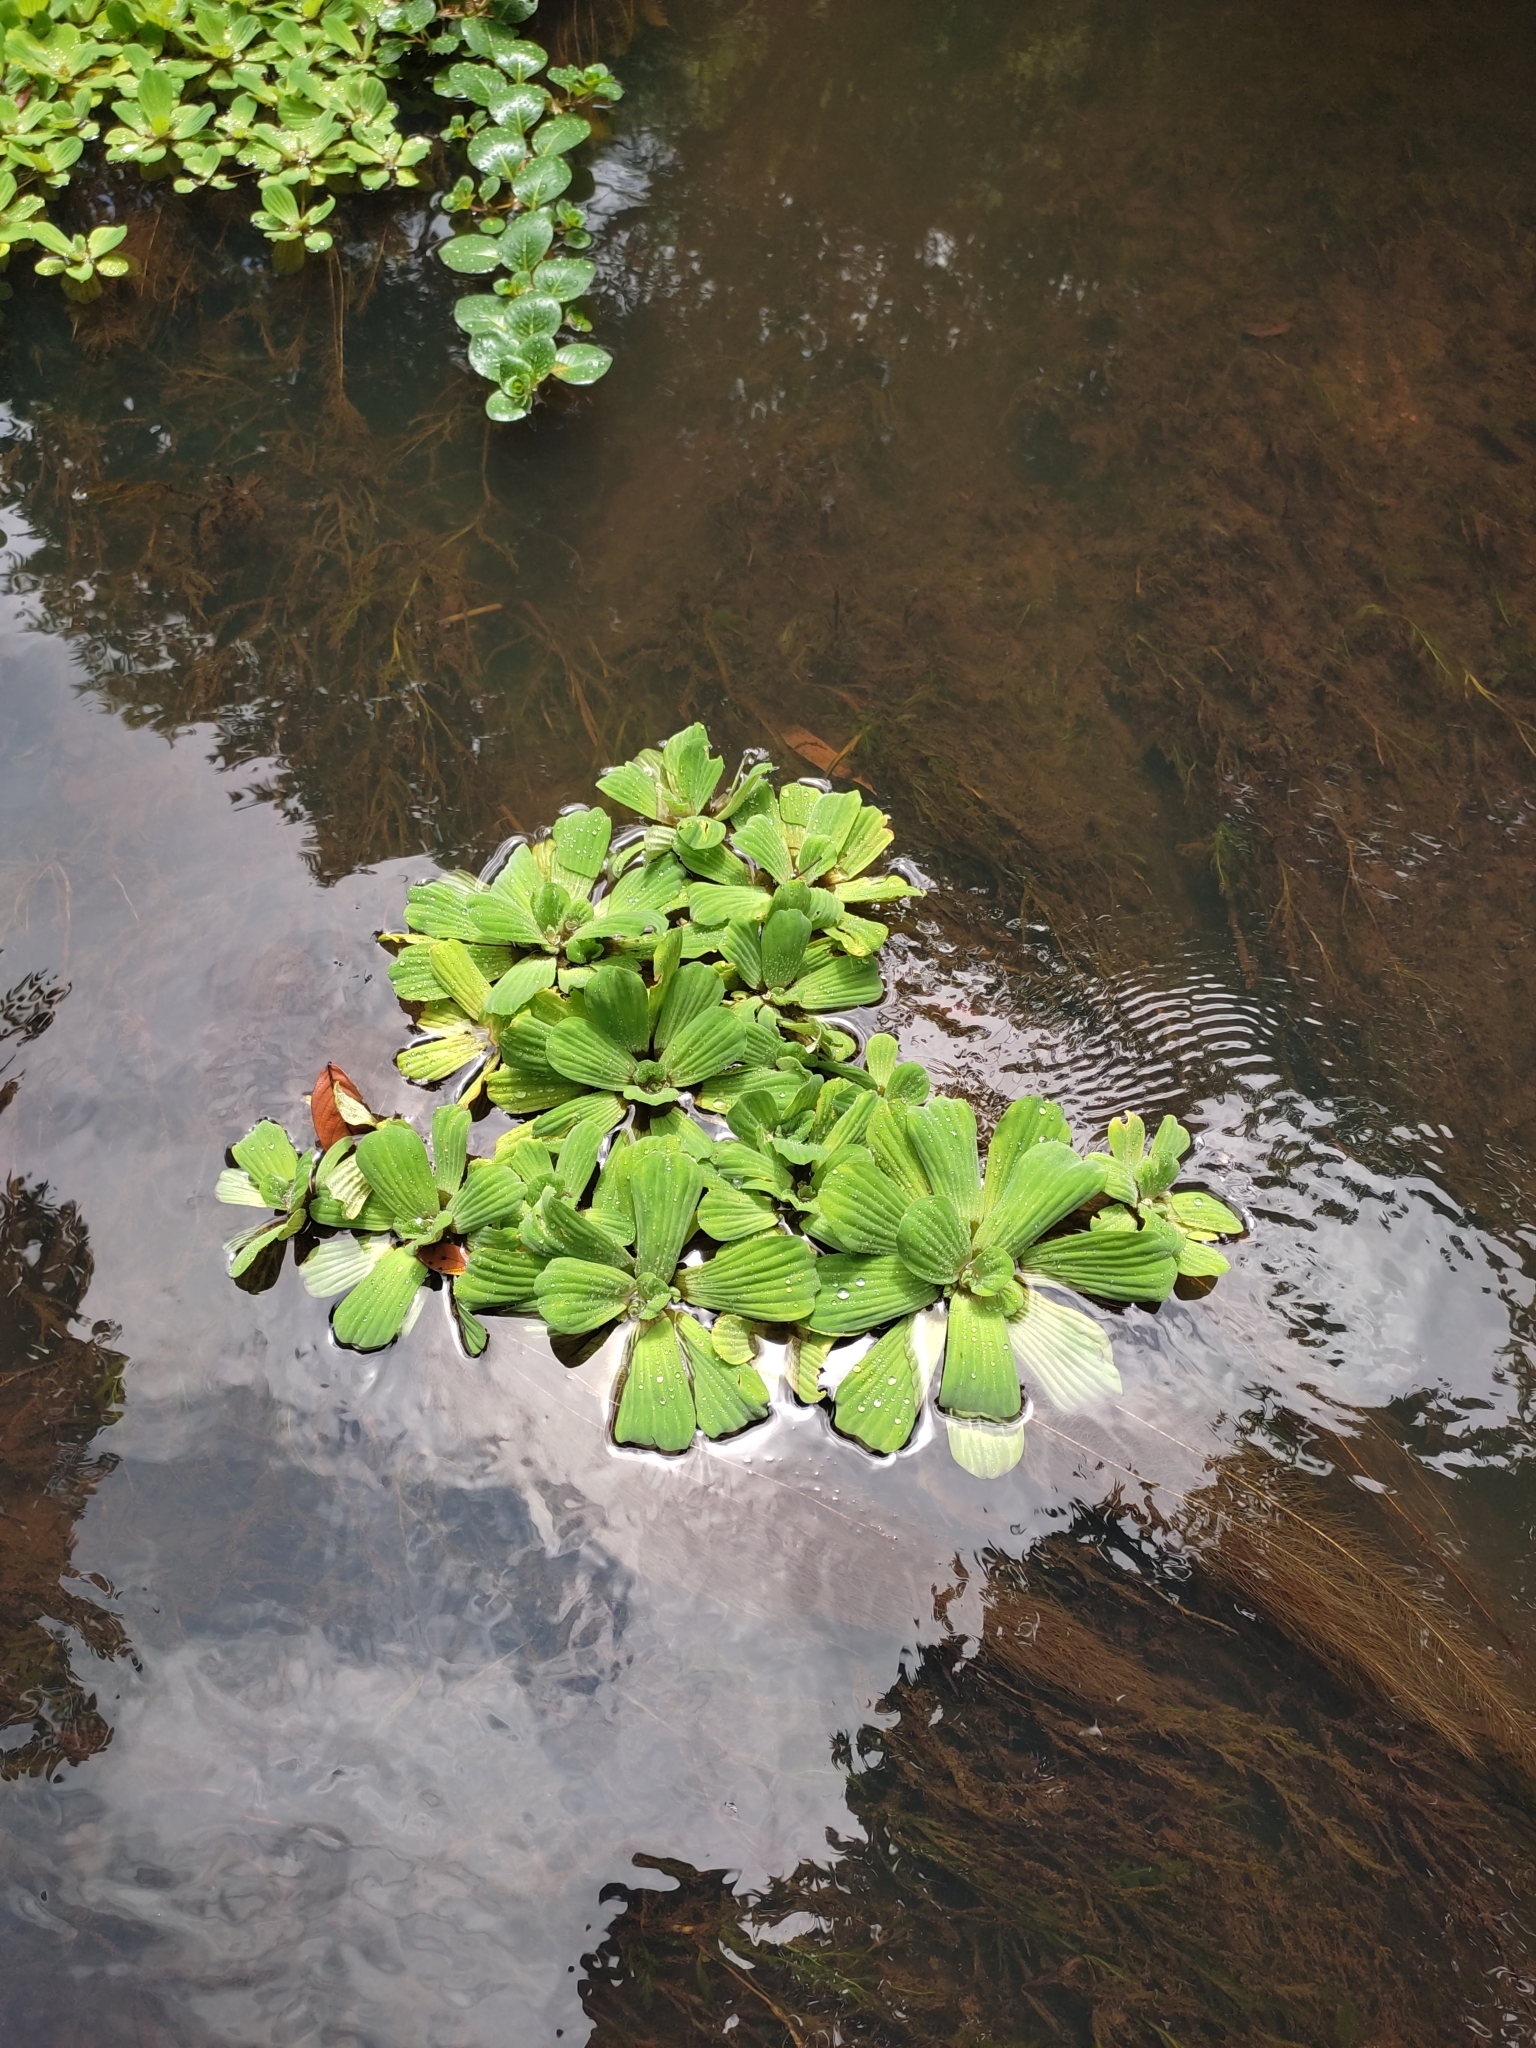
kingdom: Plantae
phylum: Tracheophyta
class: Liliopsida
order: Alismatales
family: Araceae
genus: Pistia
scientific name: Pistia stratiotes
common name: Water lettuce
